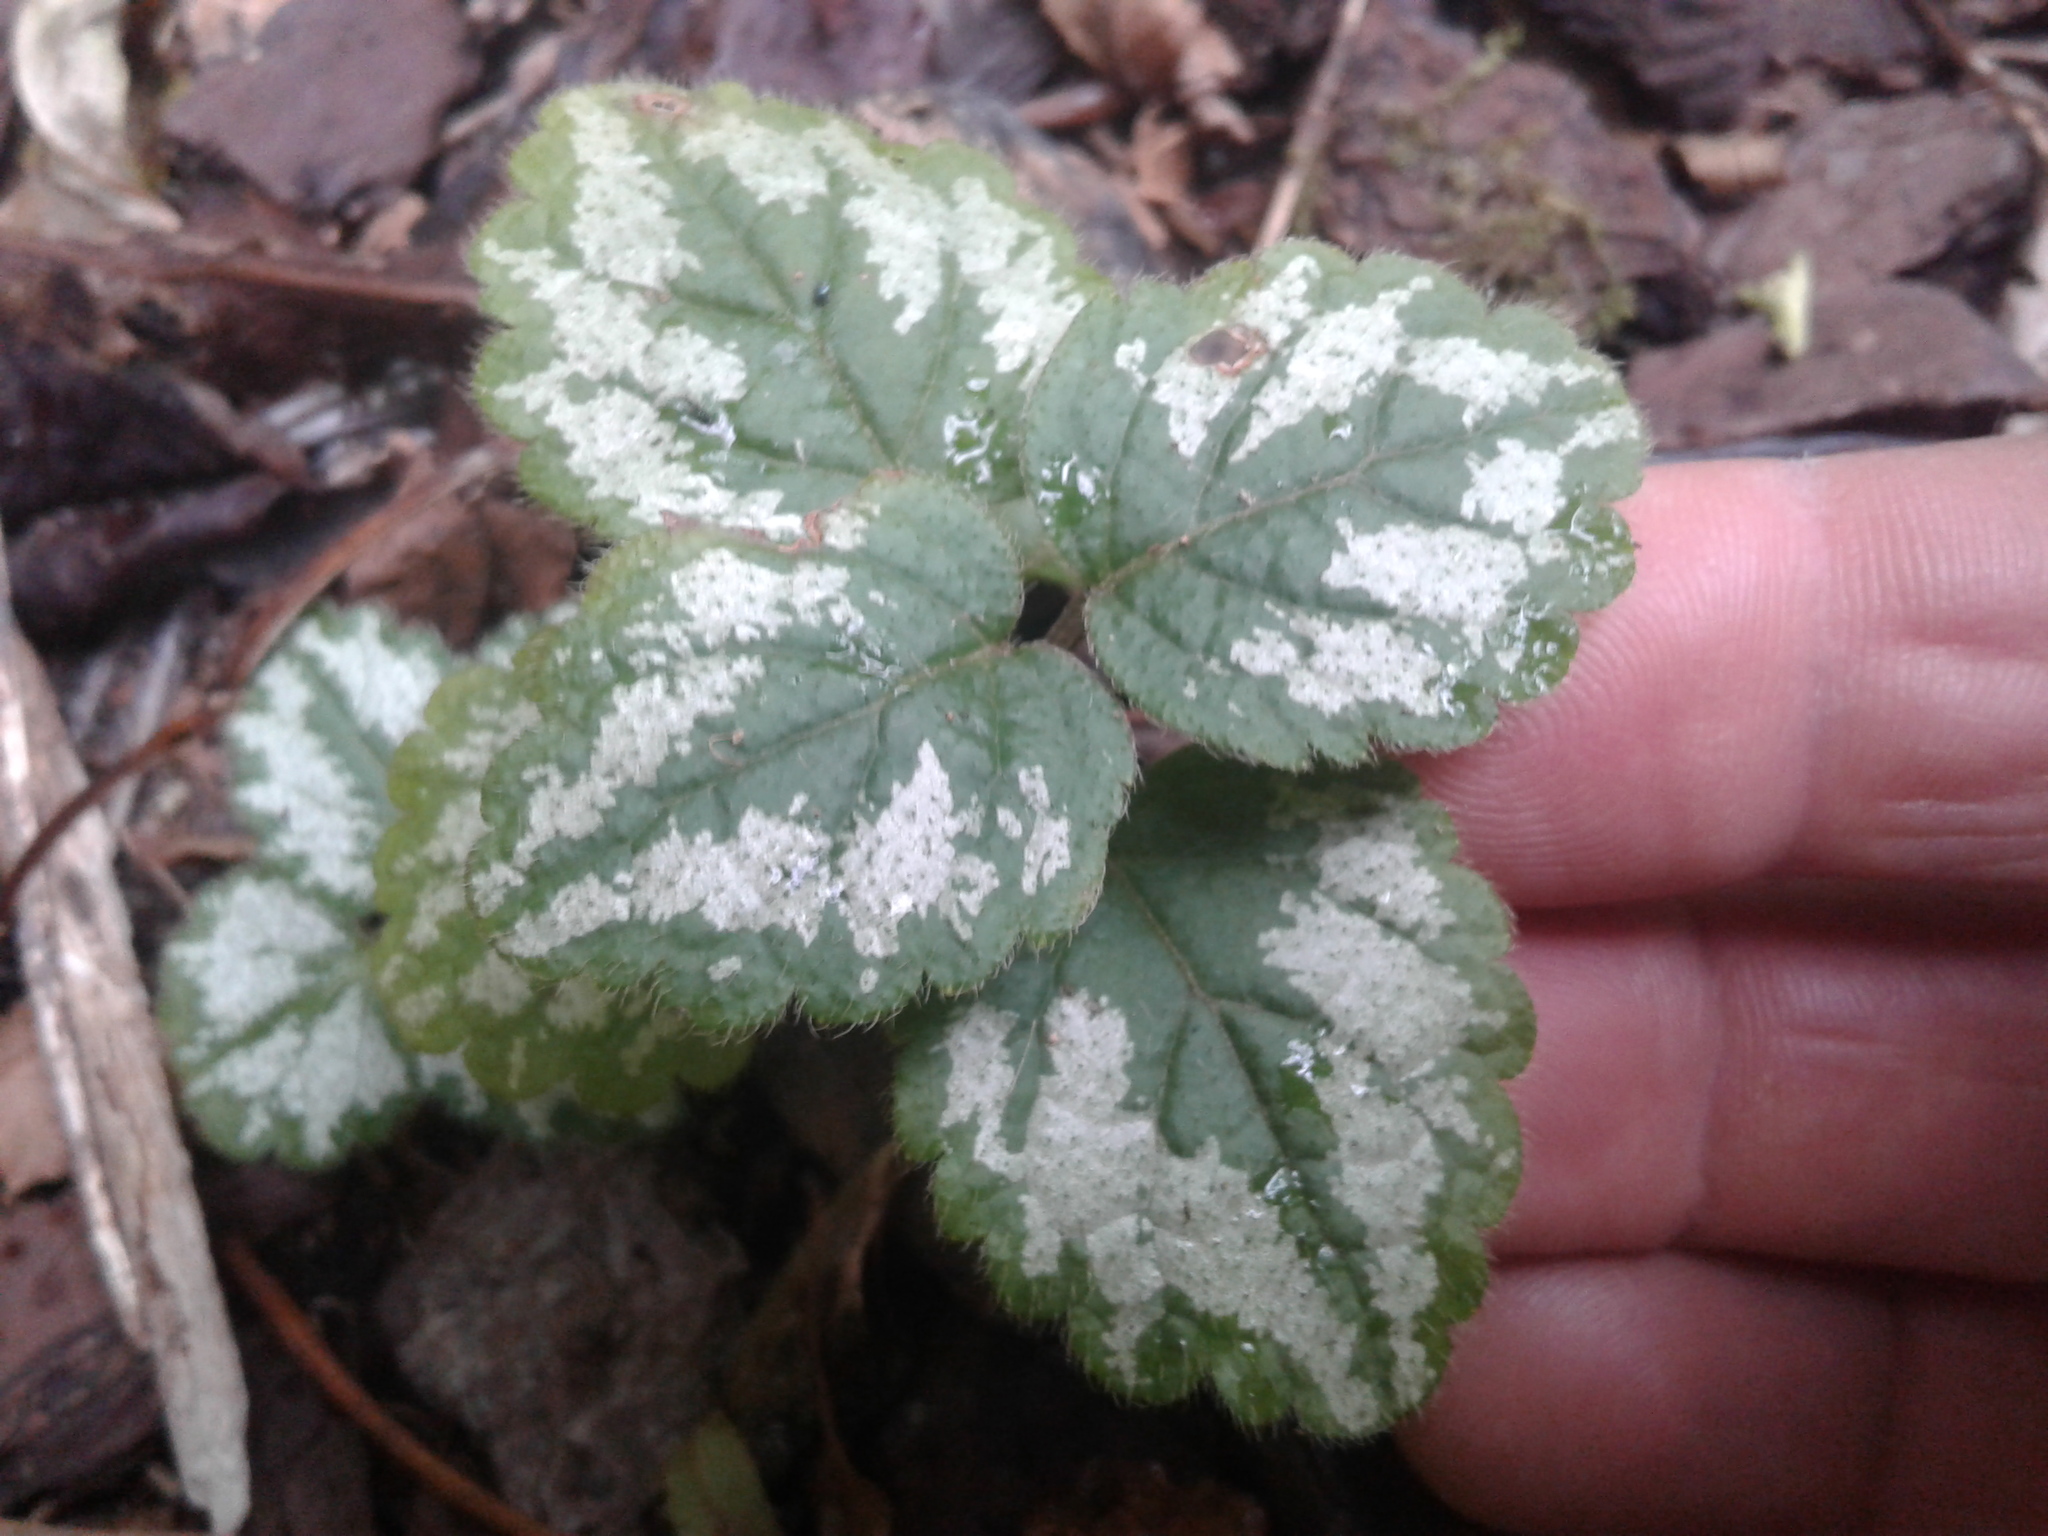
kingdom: Plantae
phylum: Tracheophyta
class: Magnoliopsida
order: Lamiales
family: Lamiaceae
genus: Lamium
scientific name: Lamium galeobdolon
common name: Yellow archangel
